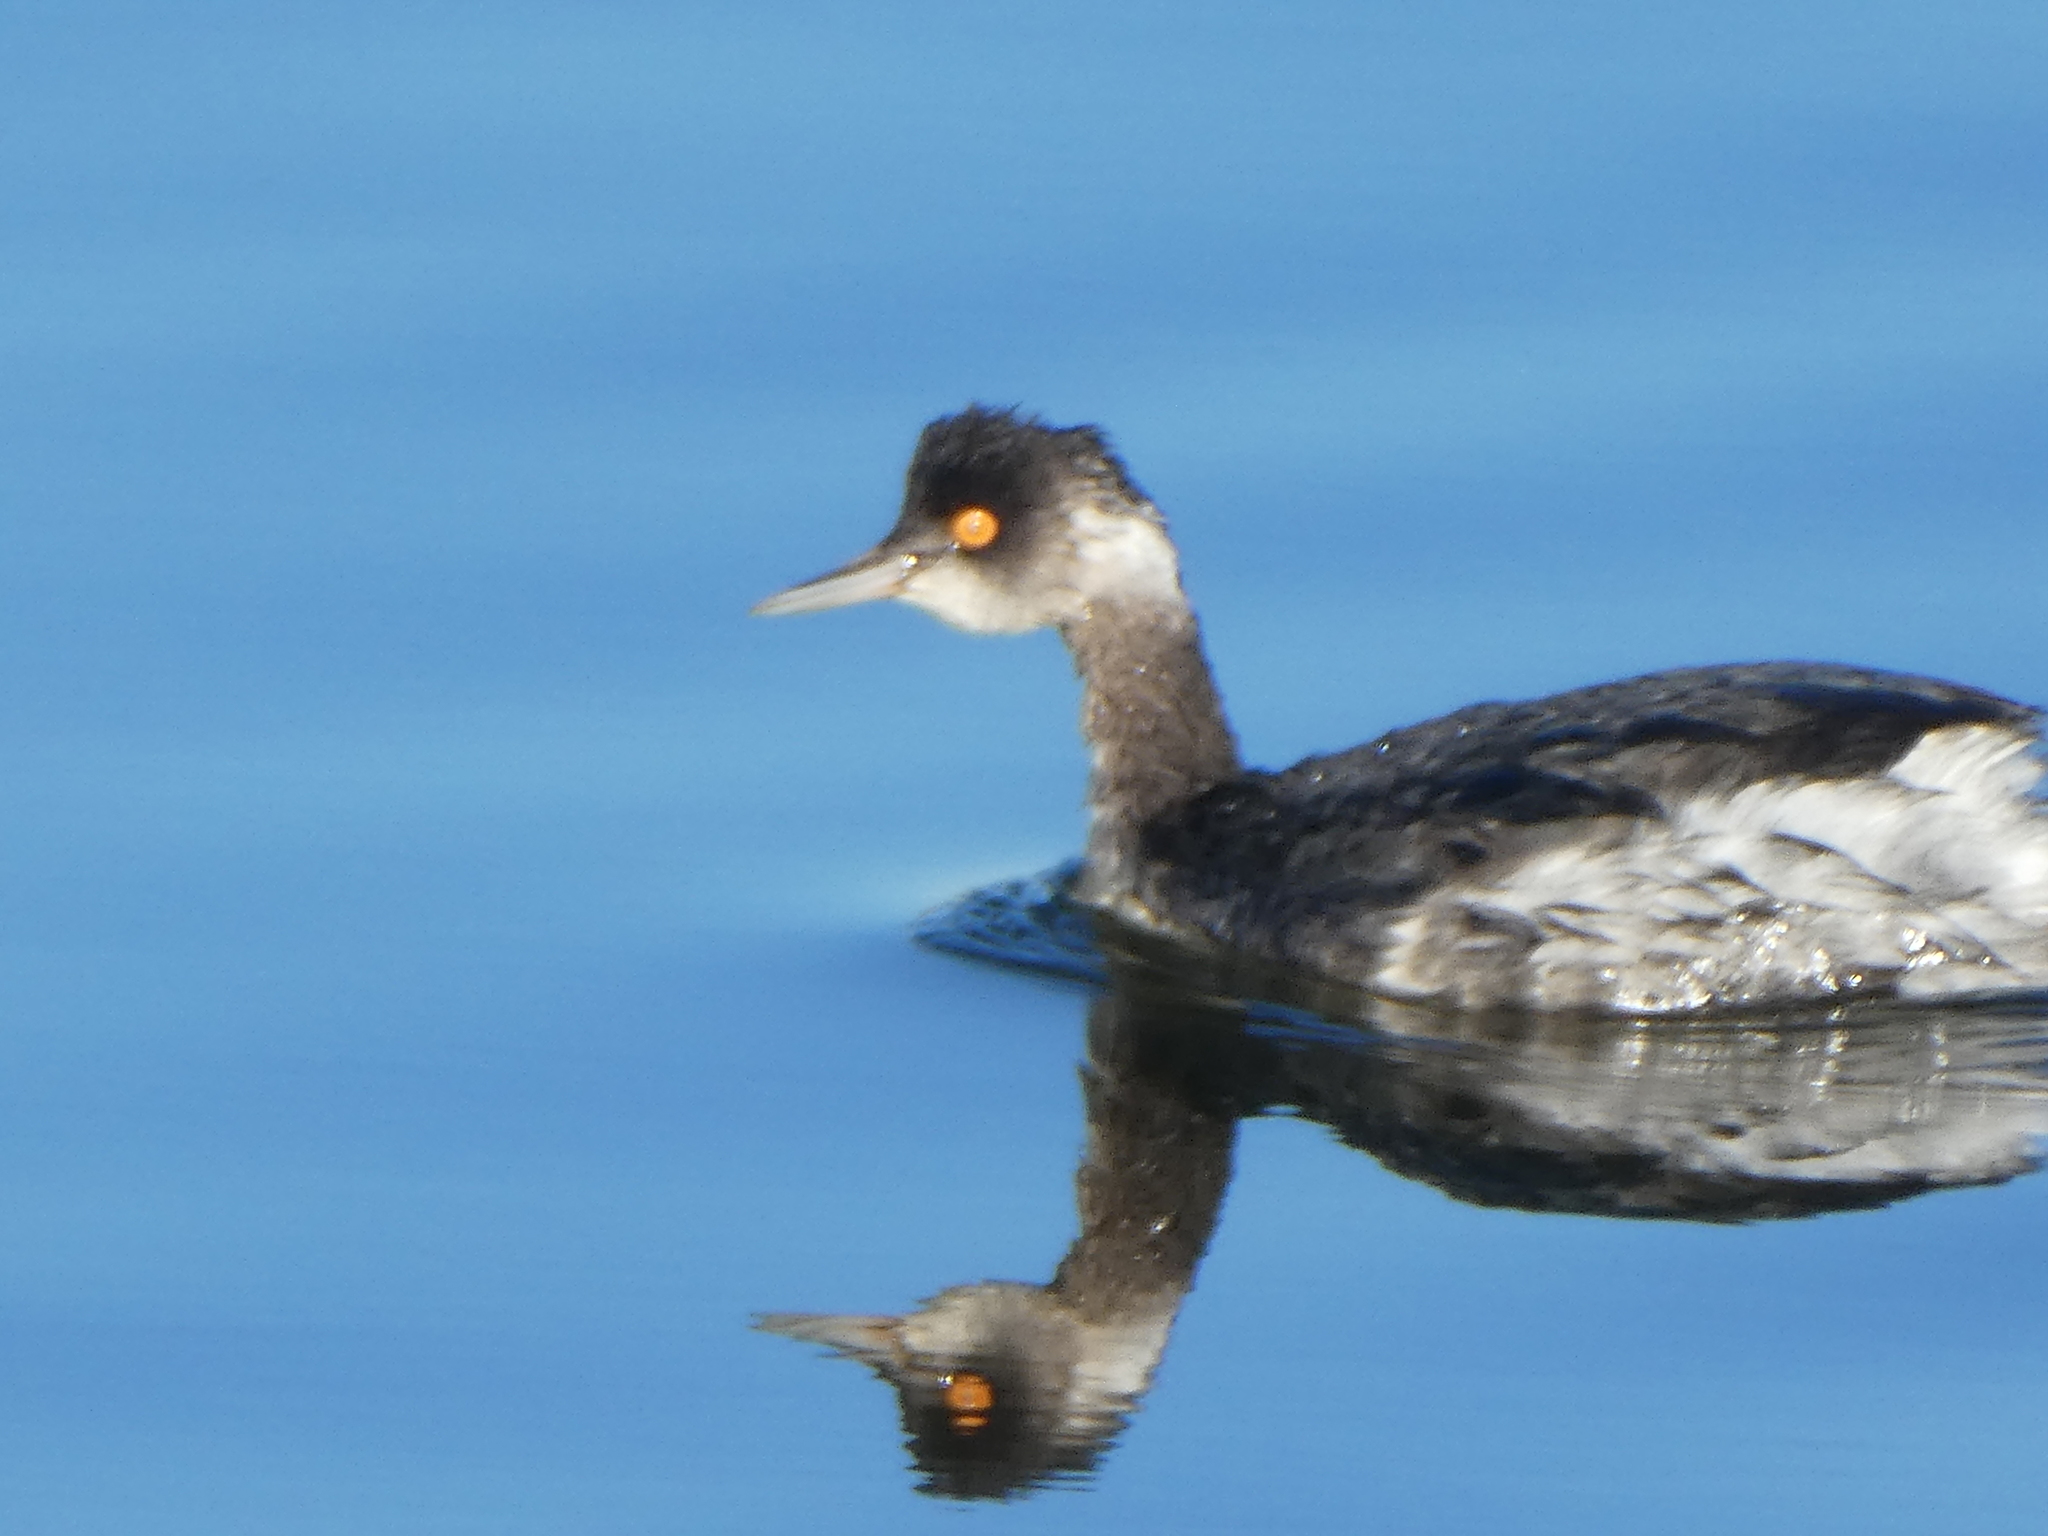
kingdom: Animalia
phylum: Chordata
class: Aves
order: Podicipediformes
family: Podicipedidae
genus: Podiceps
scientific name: Podiceps nigricollis
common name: Black-necked grebe
